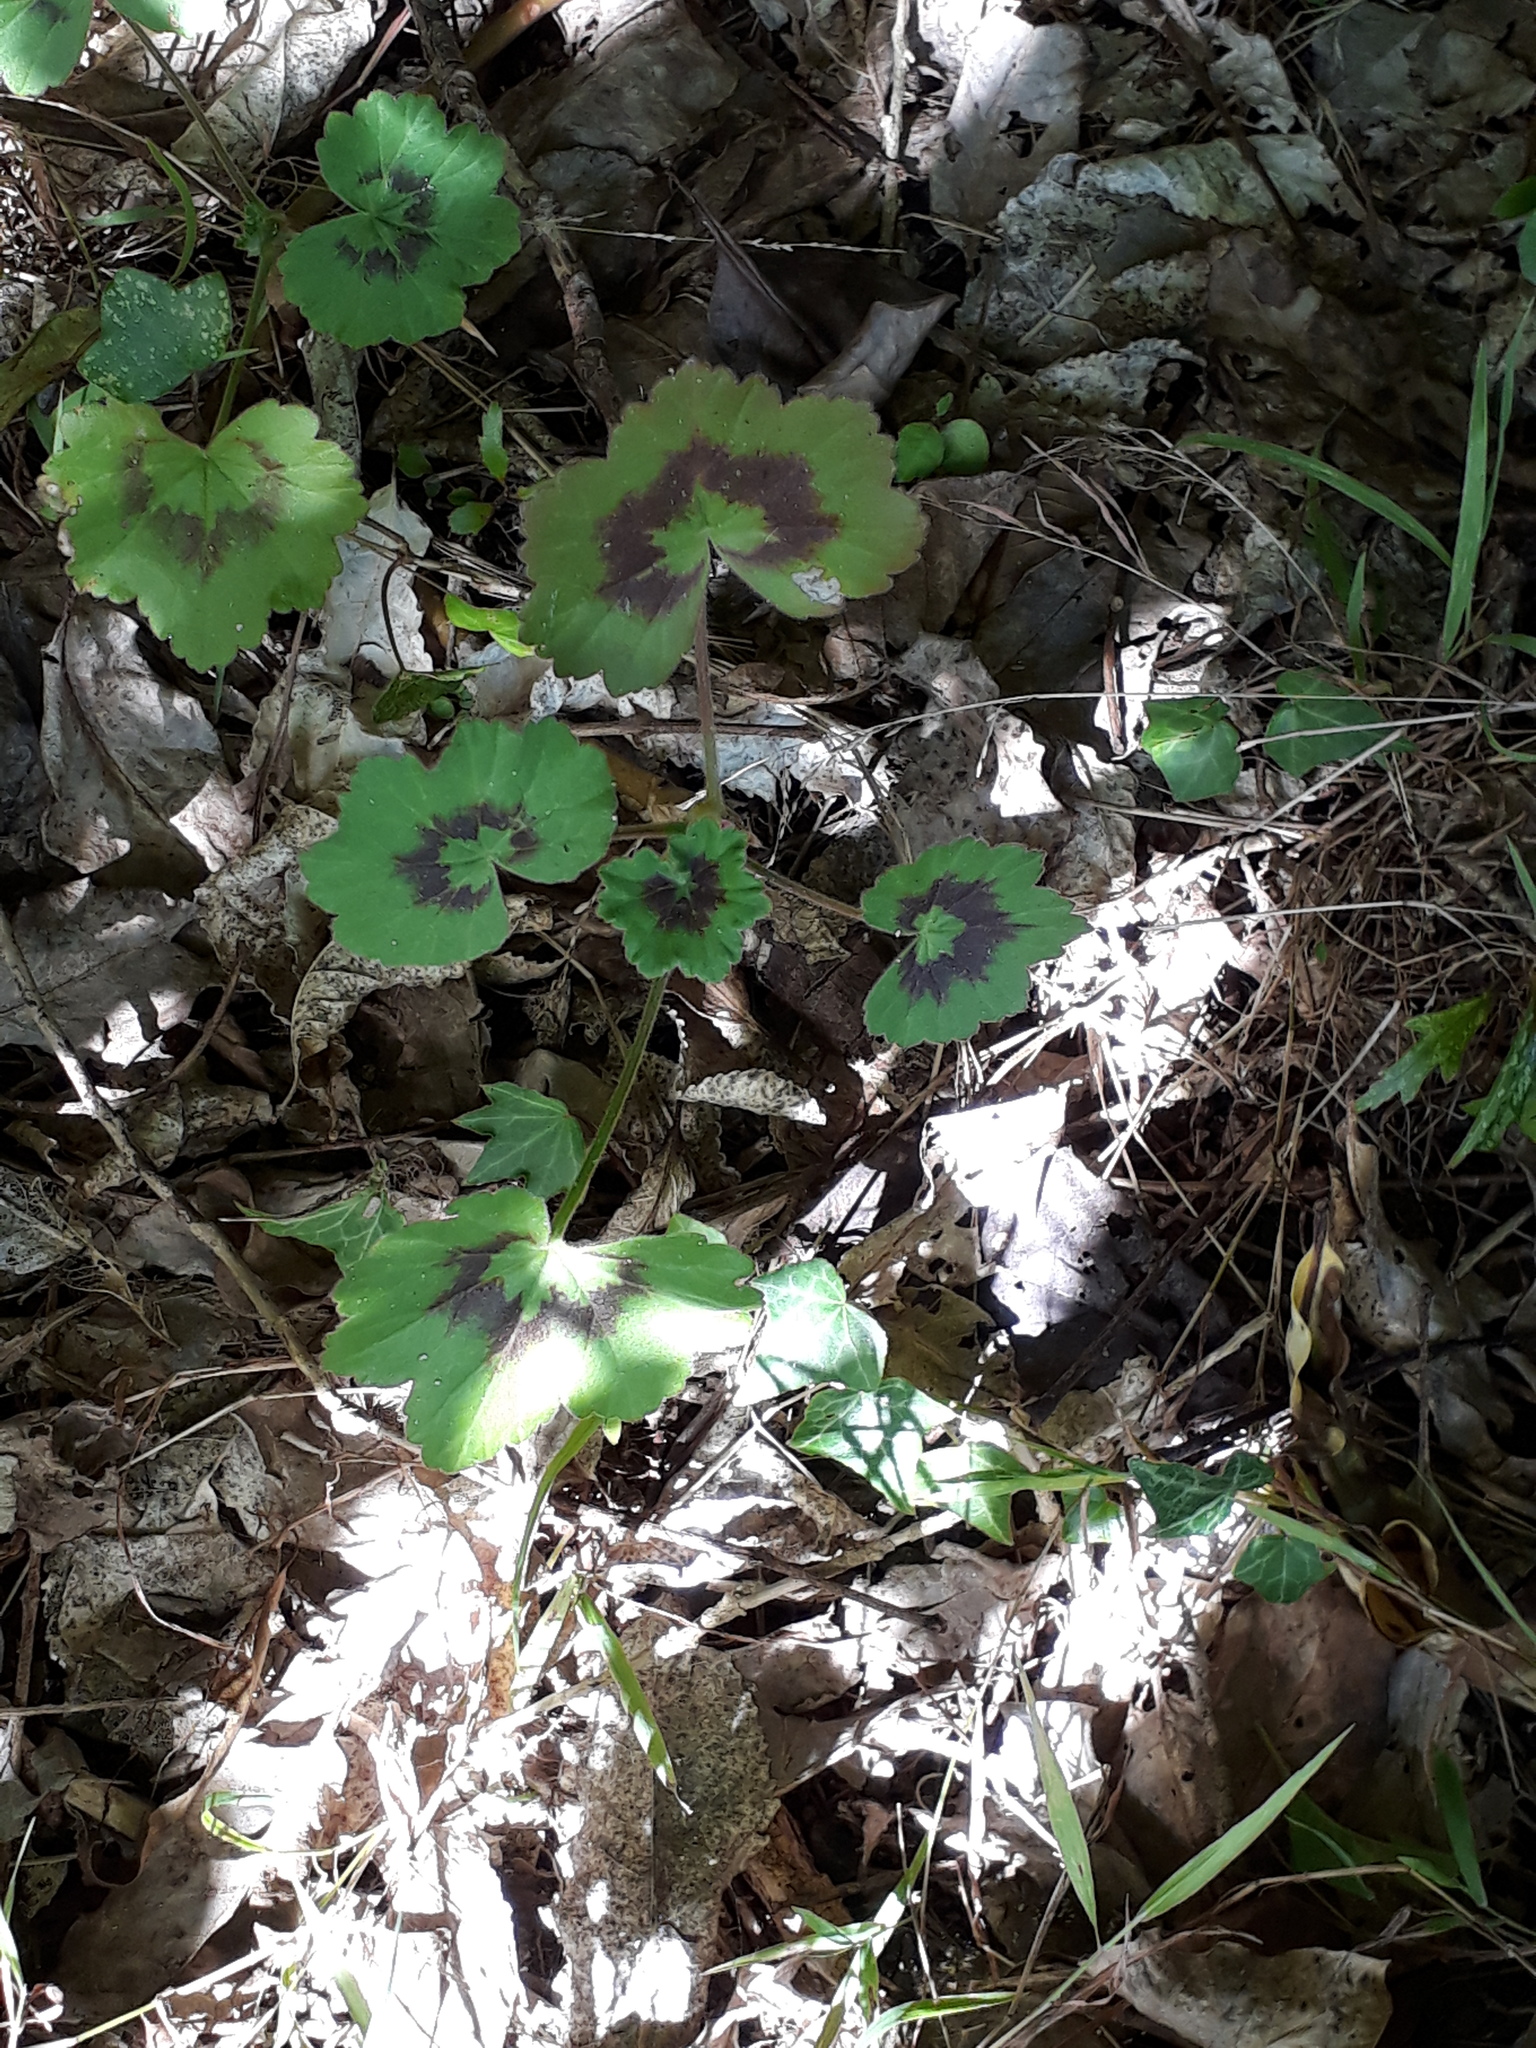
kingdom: Plantae
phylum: Tracheophyta
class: Magnoliopsida
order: Geraniales
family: Geraniaceae
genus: Pelargonium
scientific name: Pelargonium hybridum
